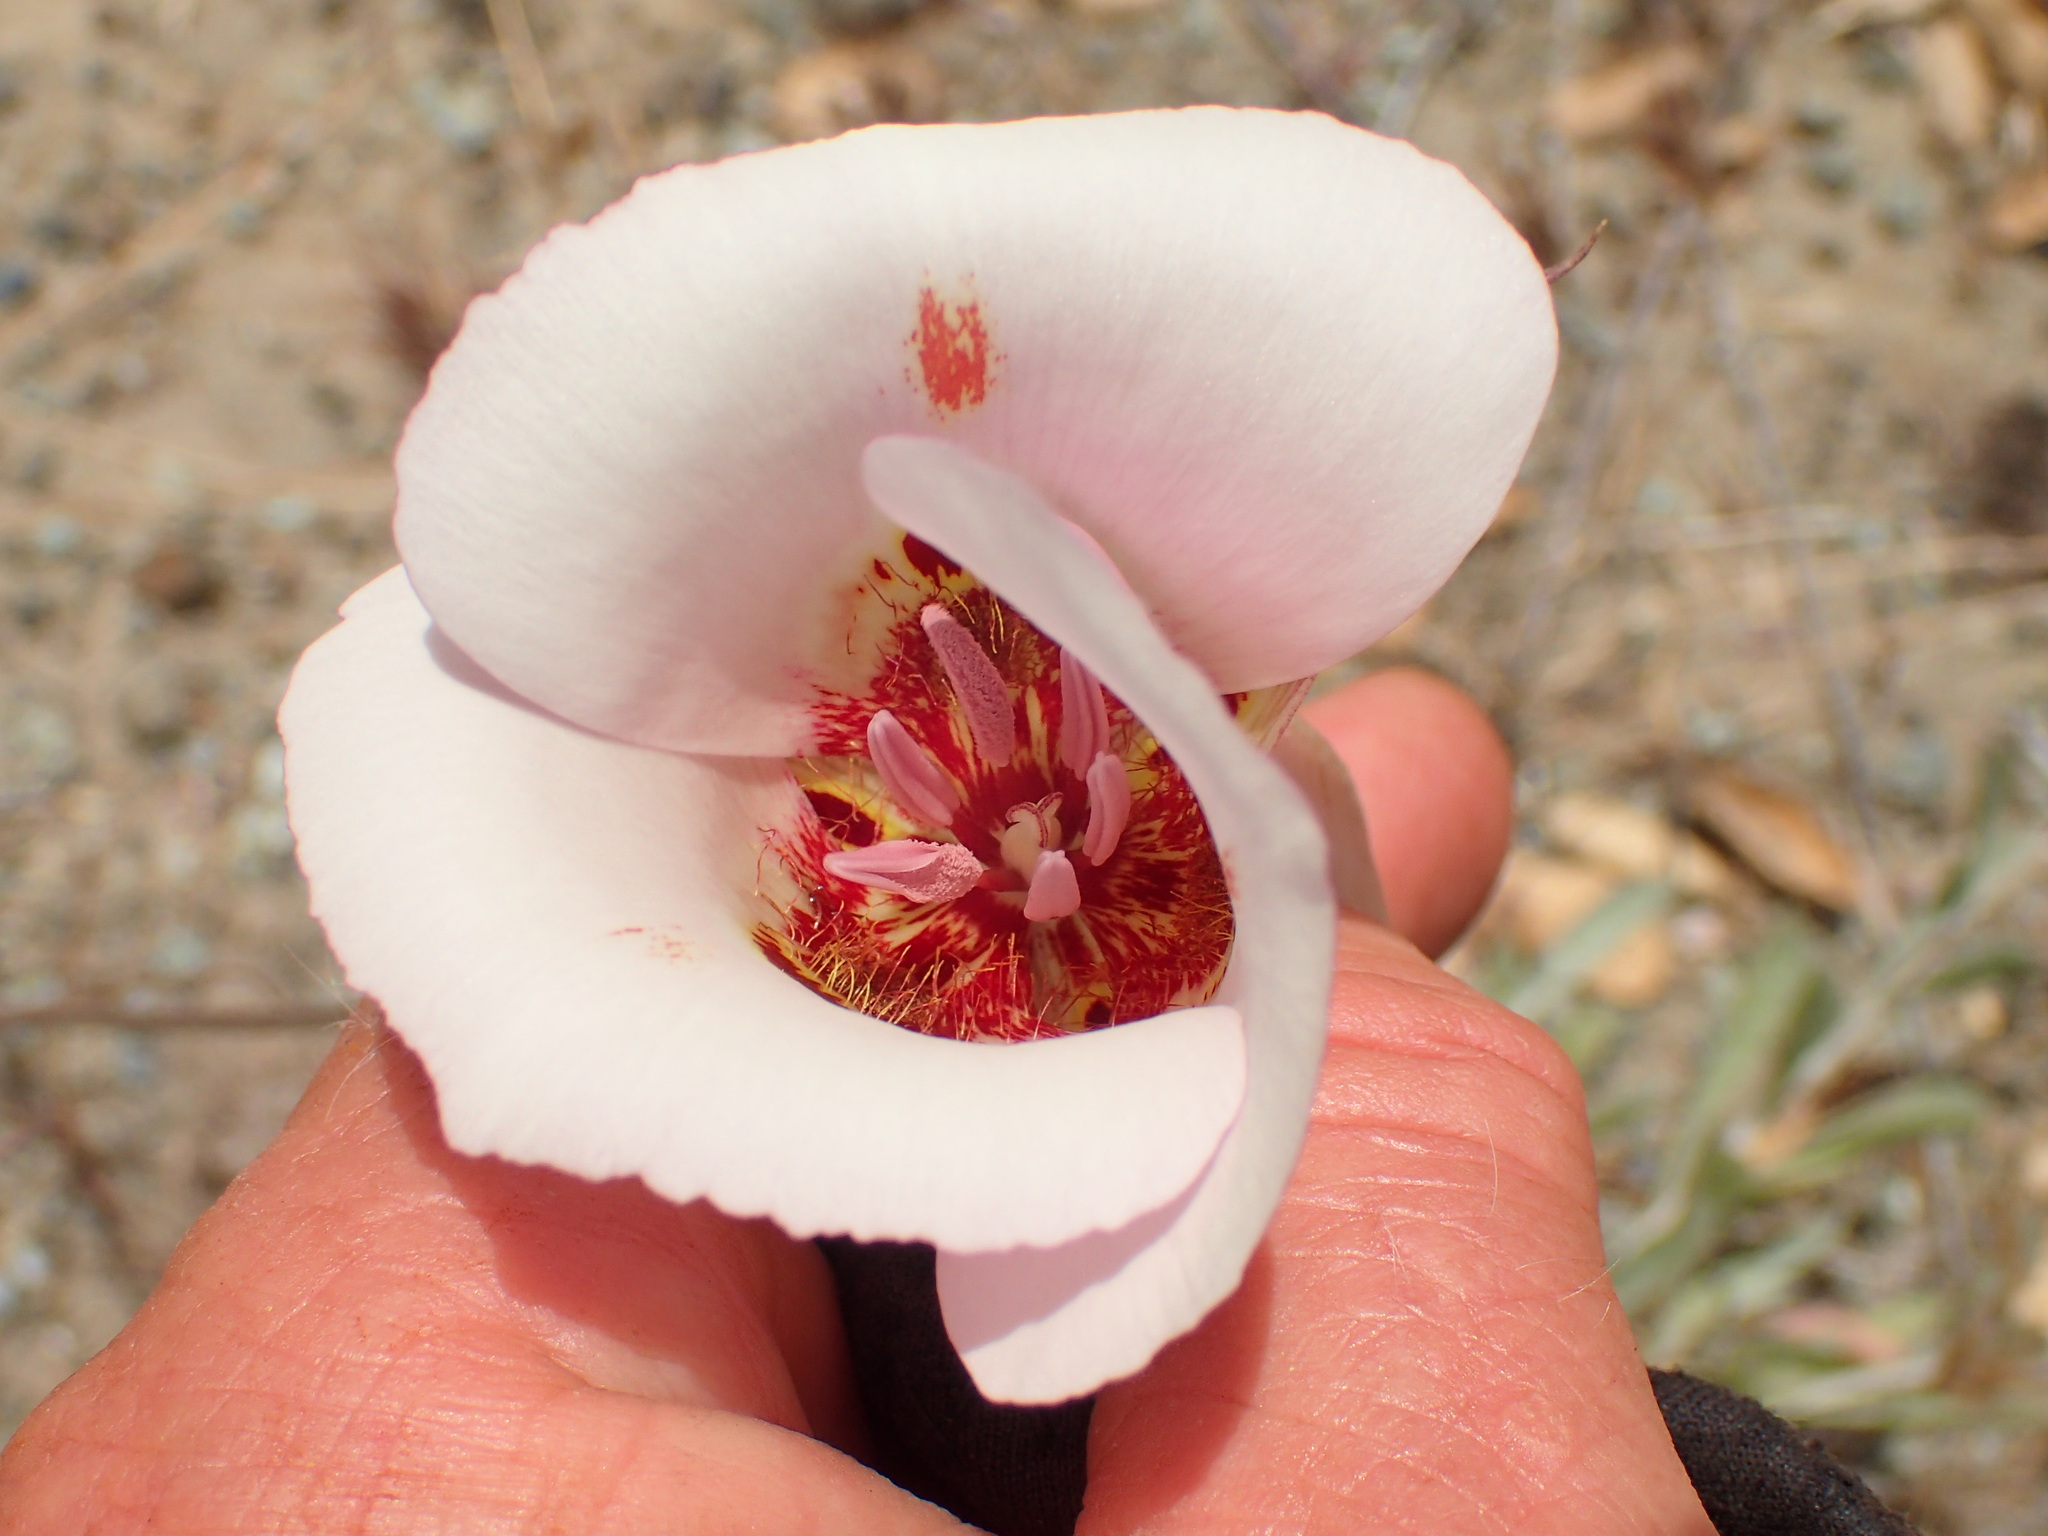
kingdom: Plantae
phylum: Tracheophyta
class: Liliopsida
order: Liliales
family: Liliaceae
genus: Calochortus
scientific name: Calochortus venustus
